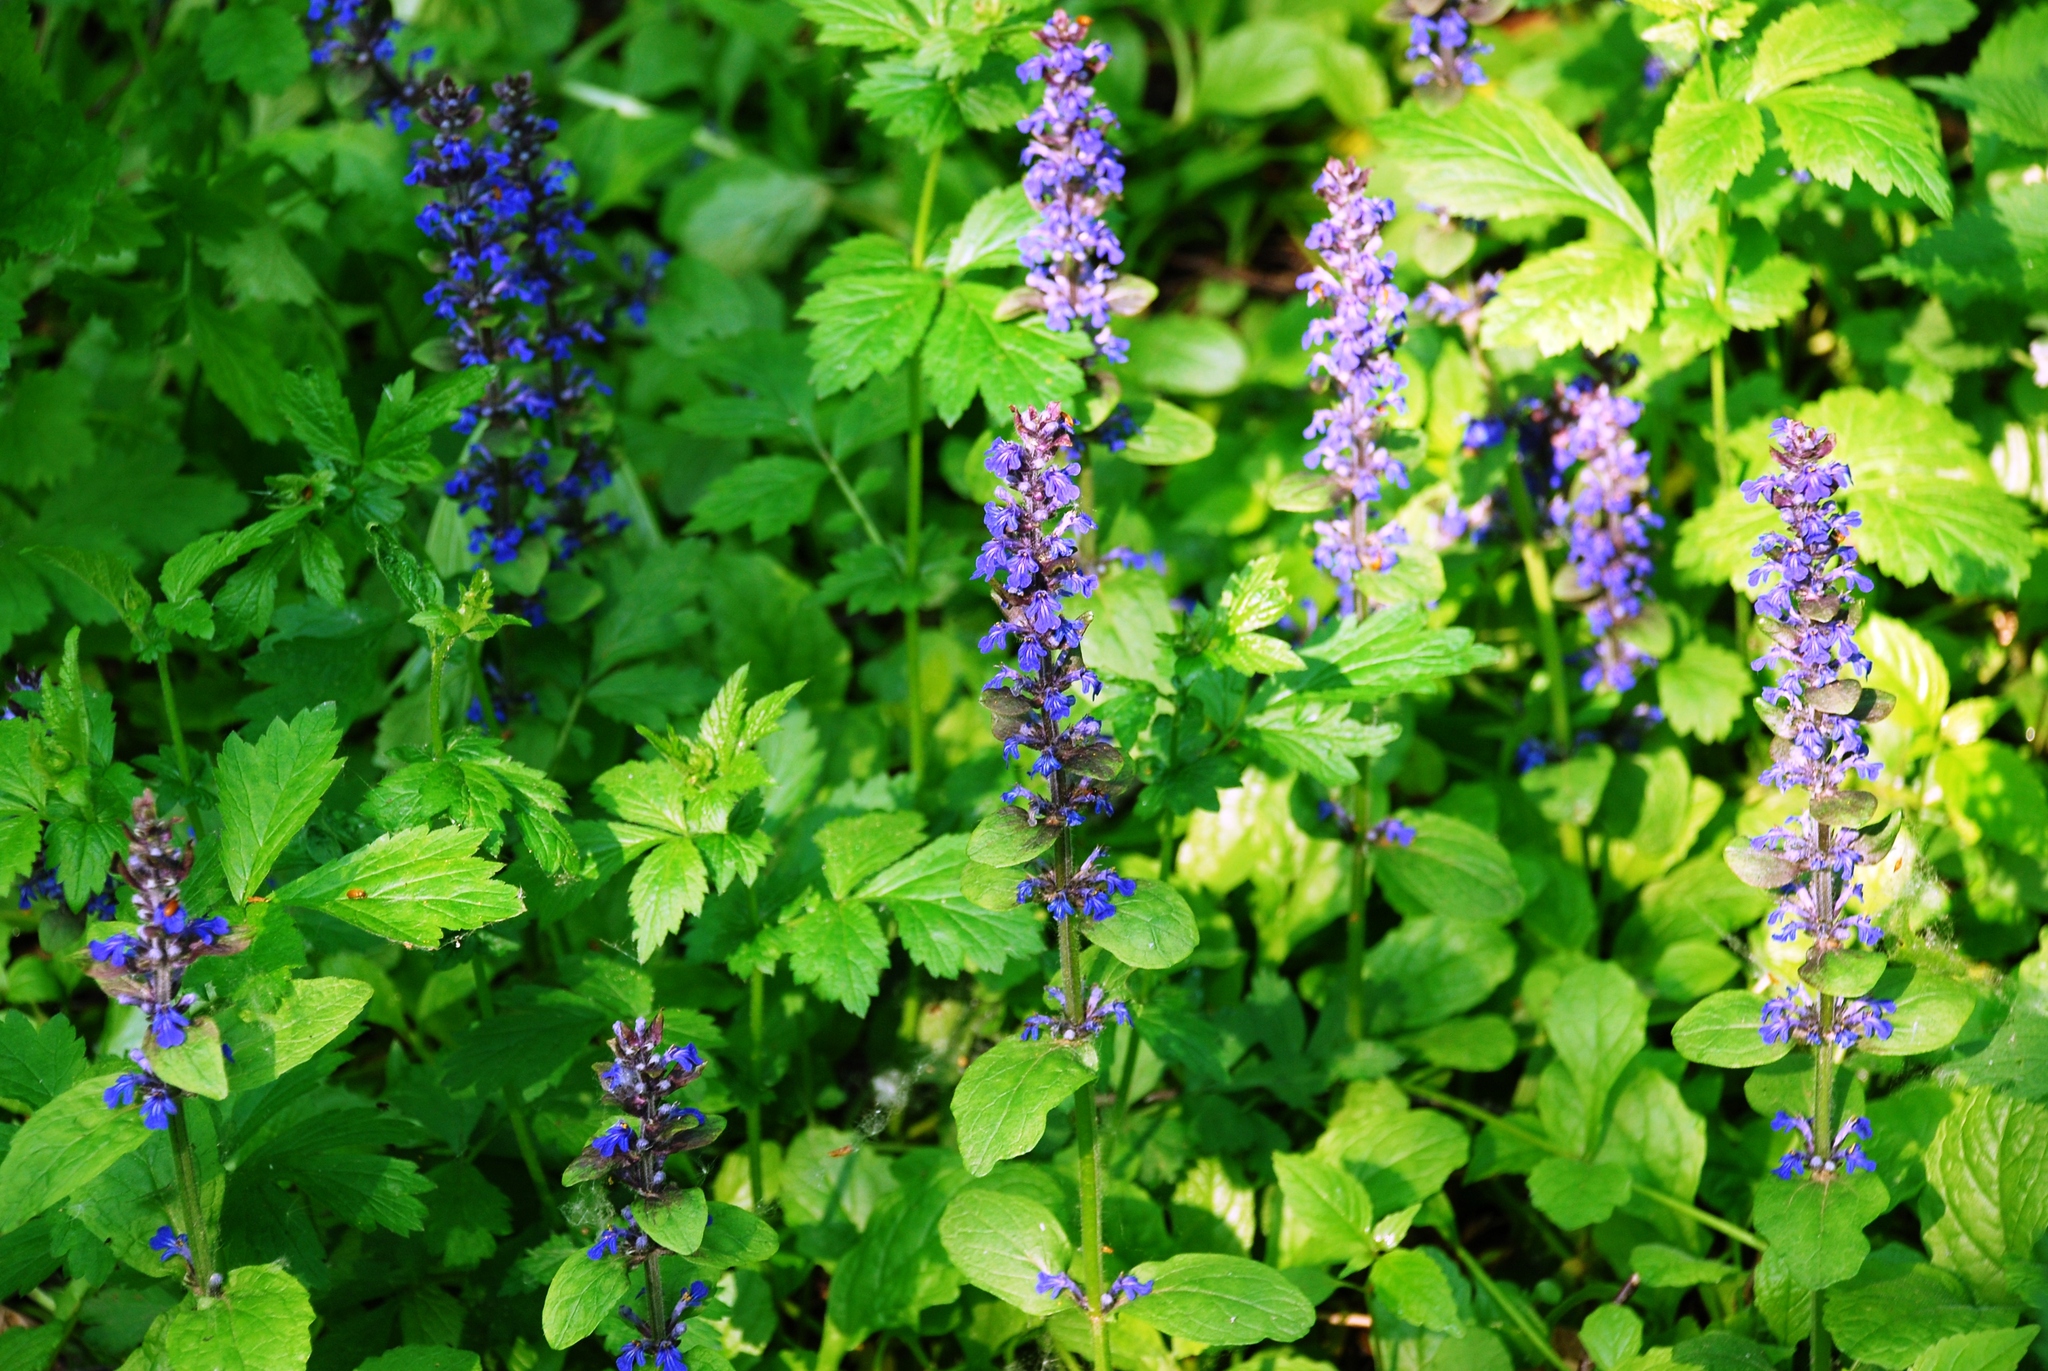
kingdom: Plantae
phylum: Tracheophyta
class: Magnoliopsida
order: Lamiales
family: Lamiaceae
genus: Ajuga
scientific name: Ajuga reptans
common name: Bugle
